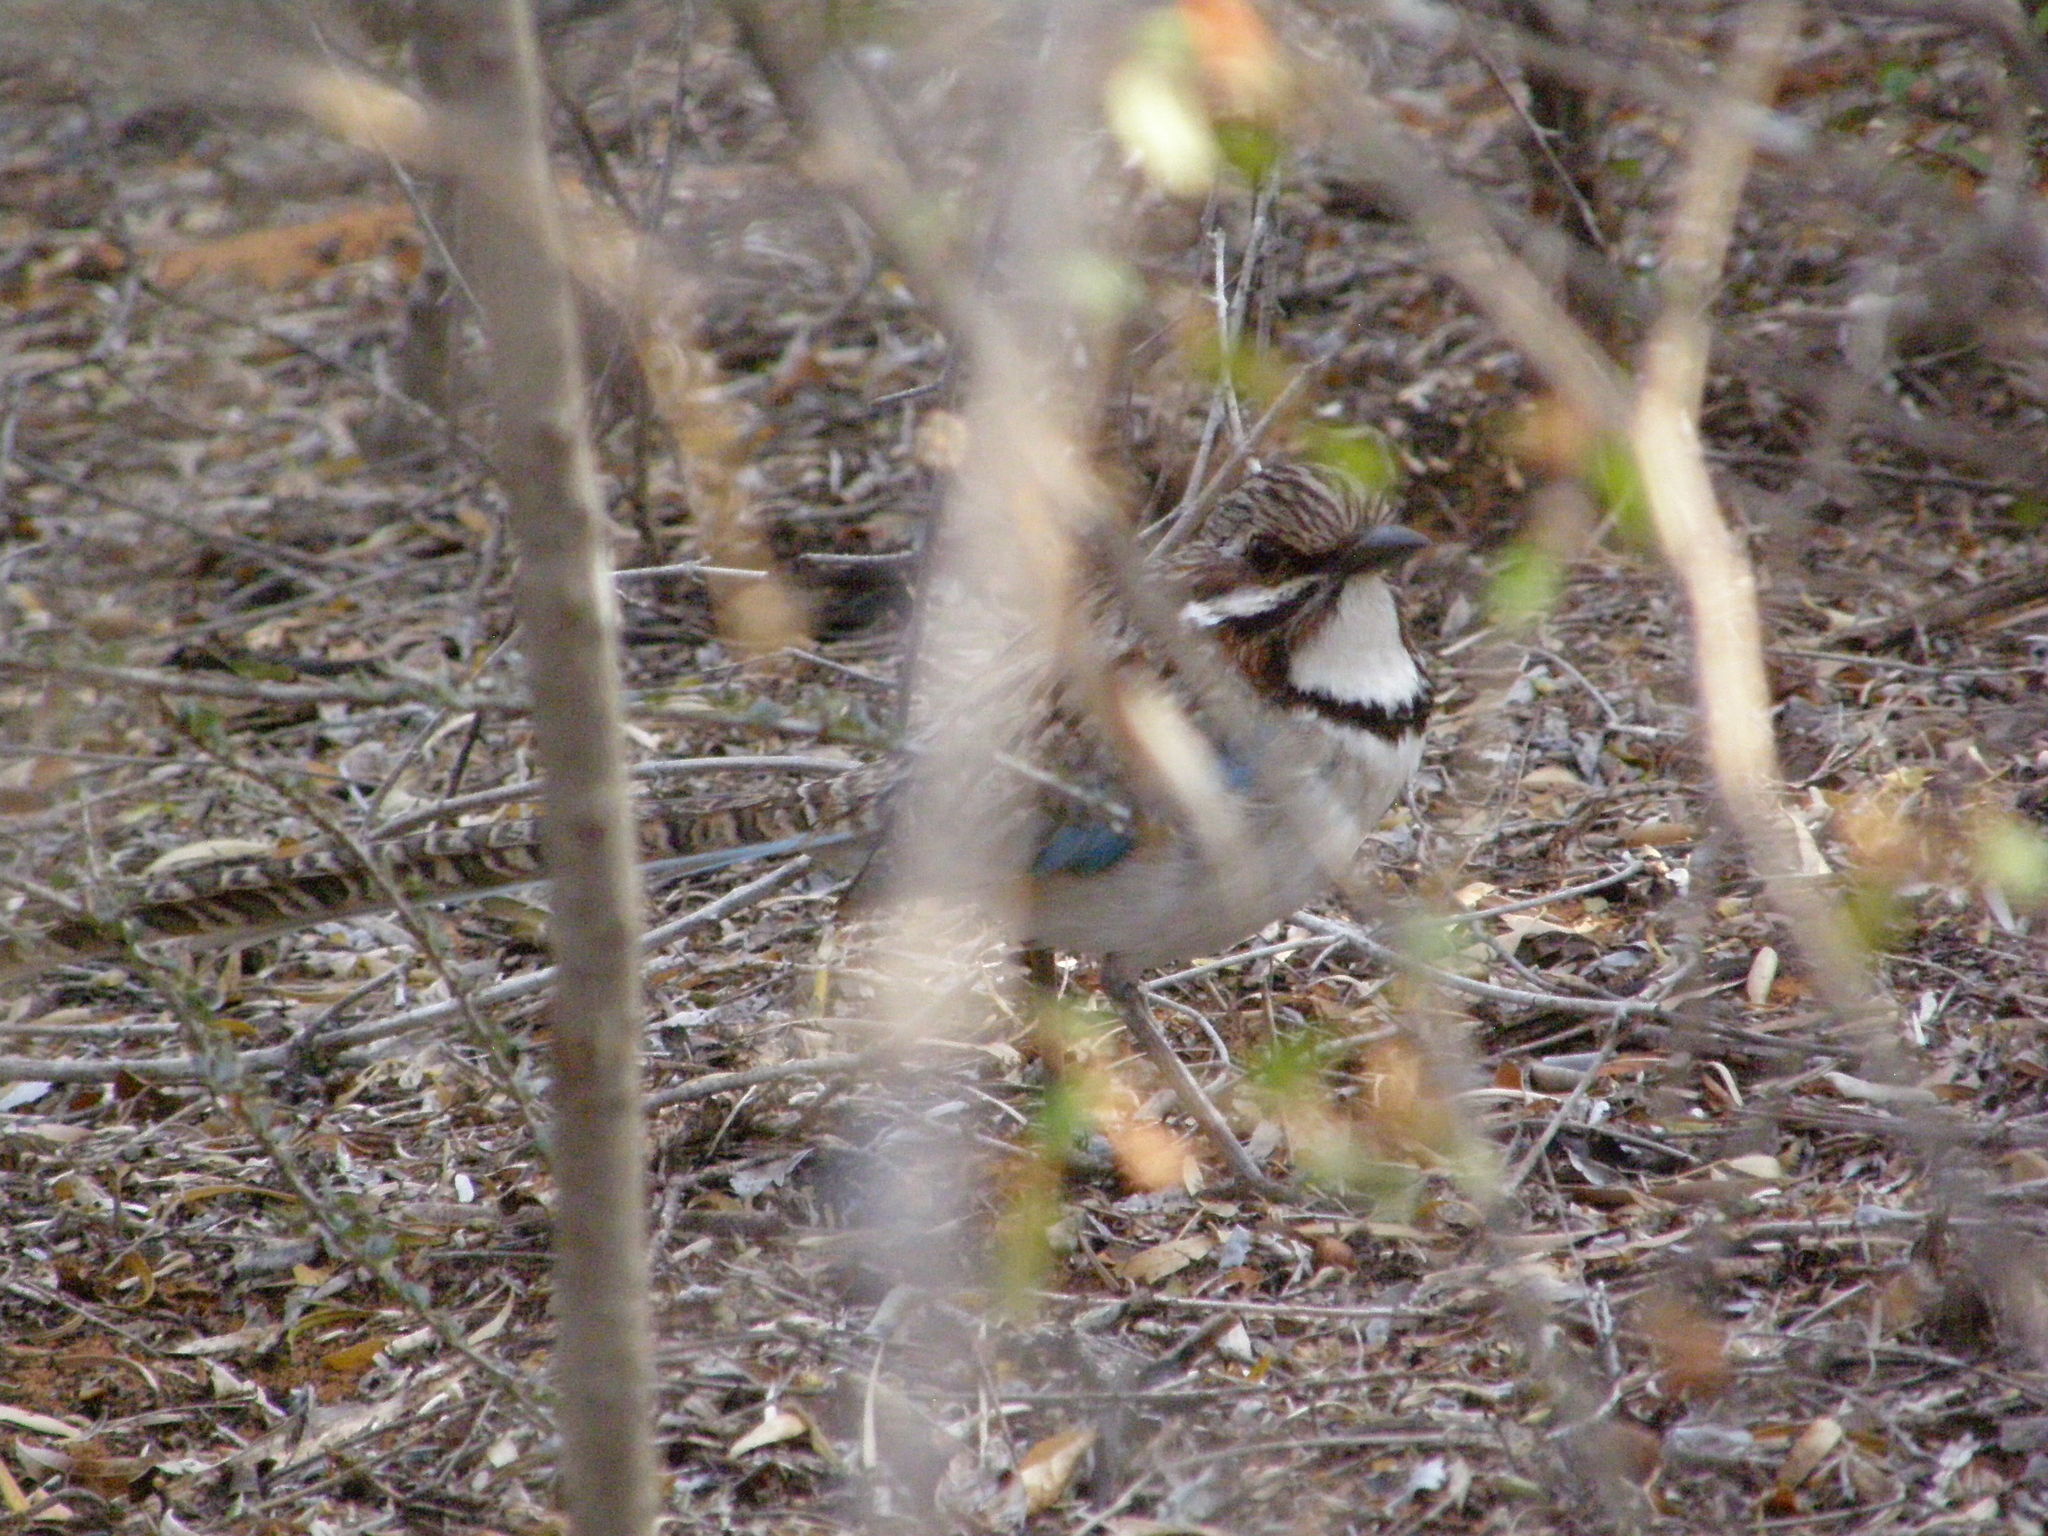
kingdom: Animalia
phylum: Chordata
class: Aves
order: Coraciiformes
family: Brachypteraciidae
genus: Uratelornis
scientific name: Uratelornis chimaera
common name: Long-tailed ground roller
